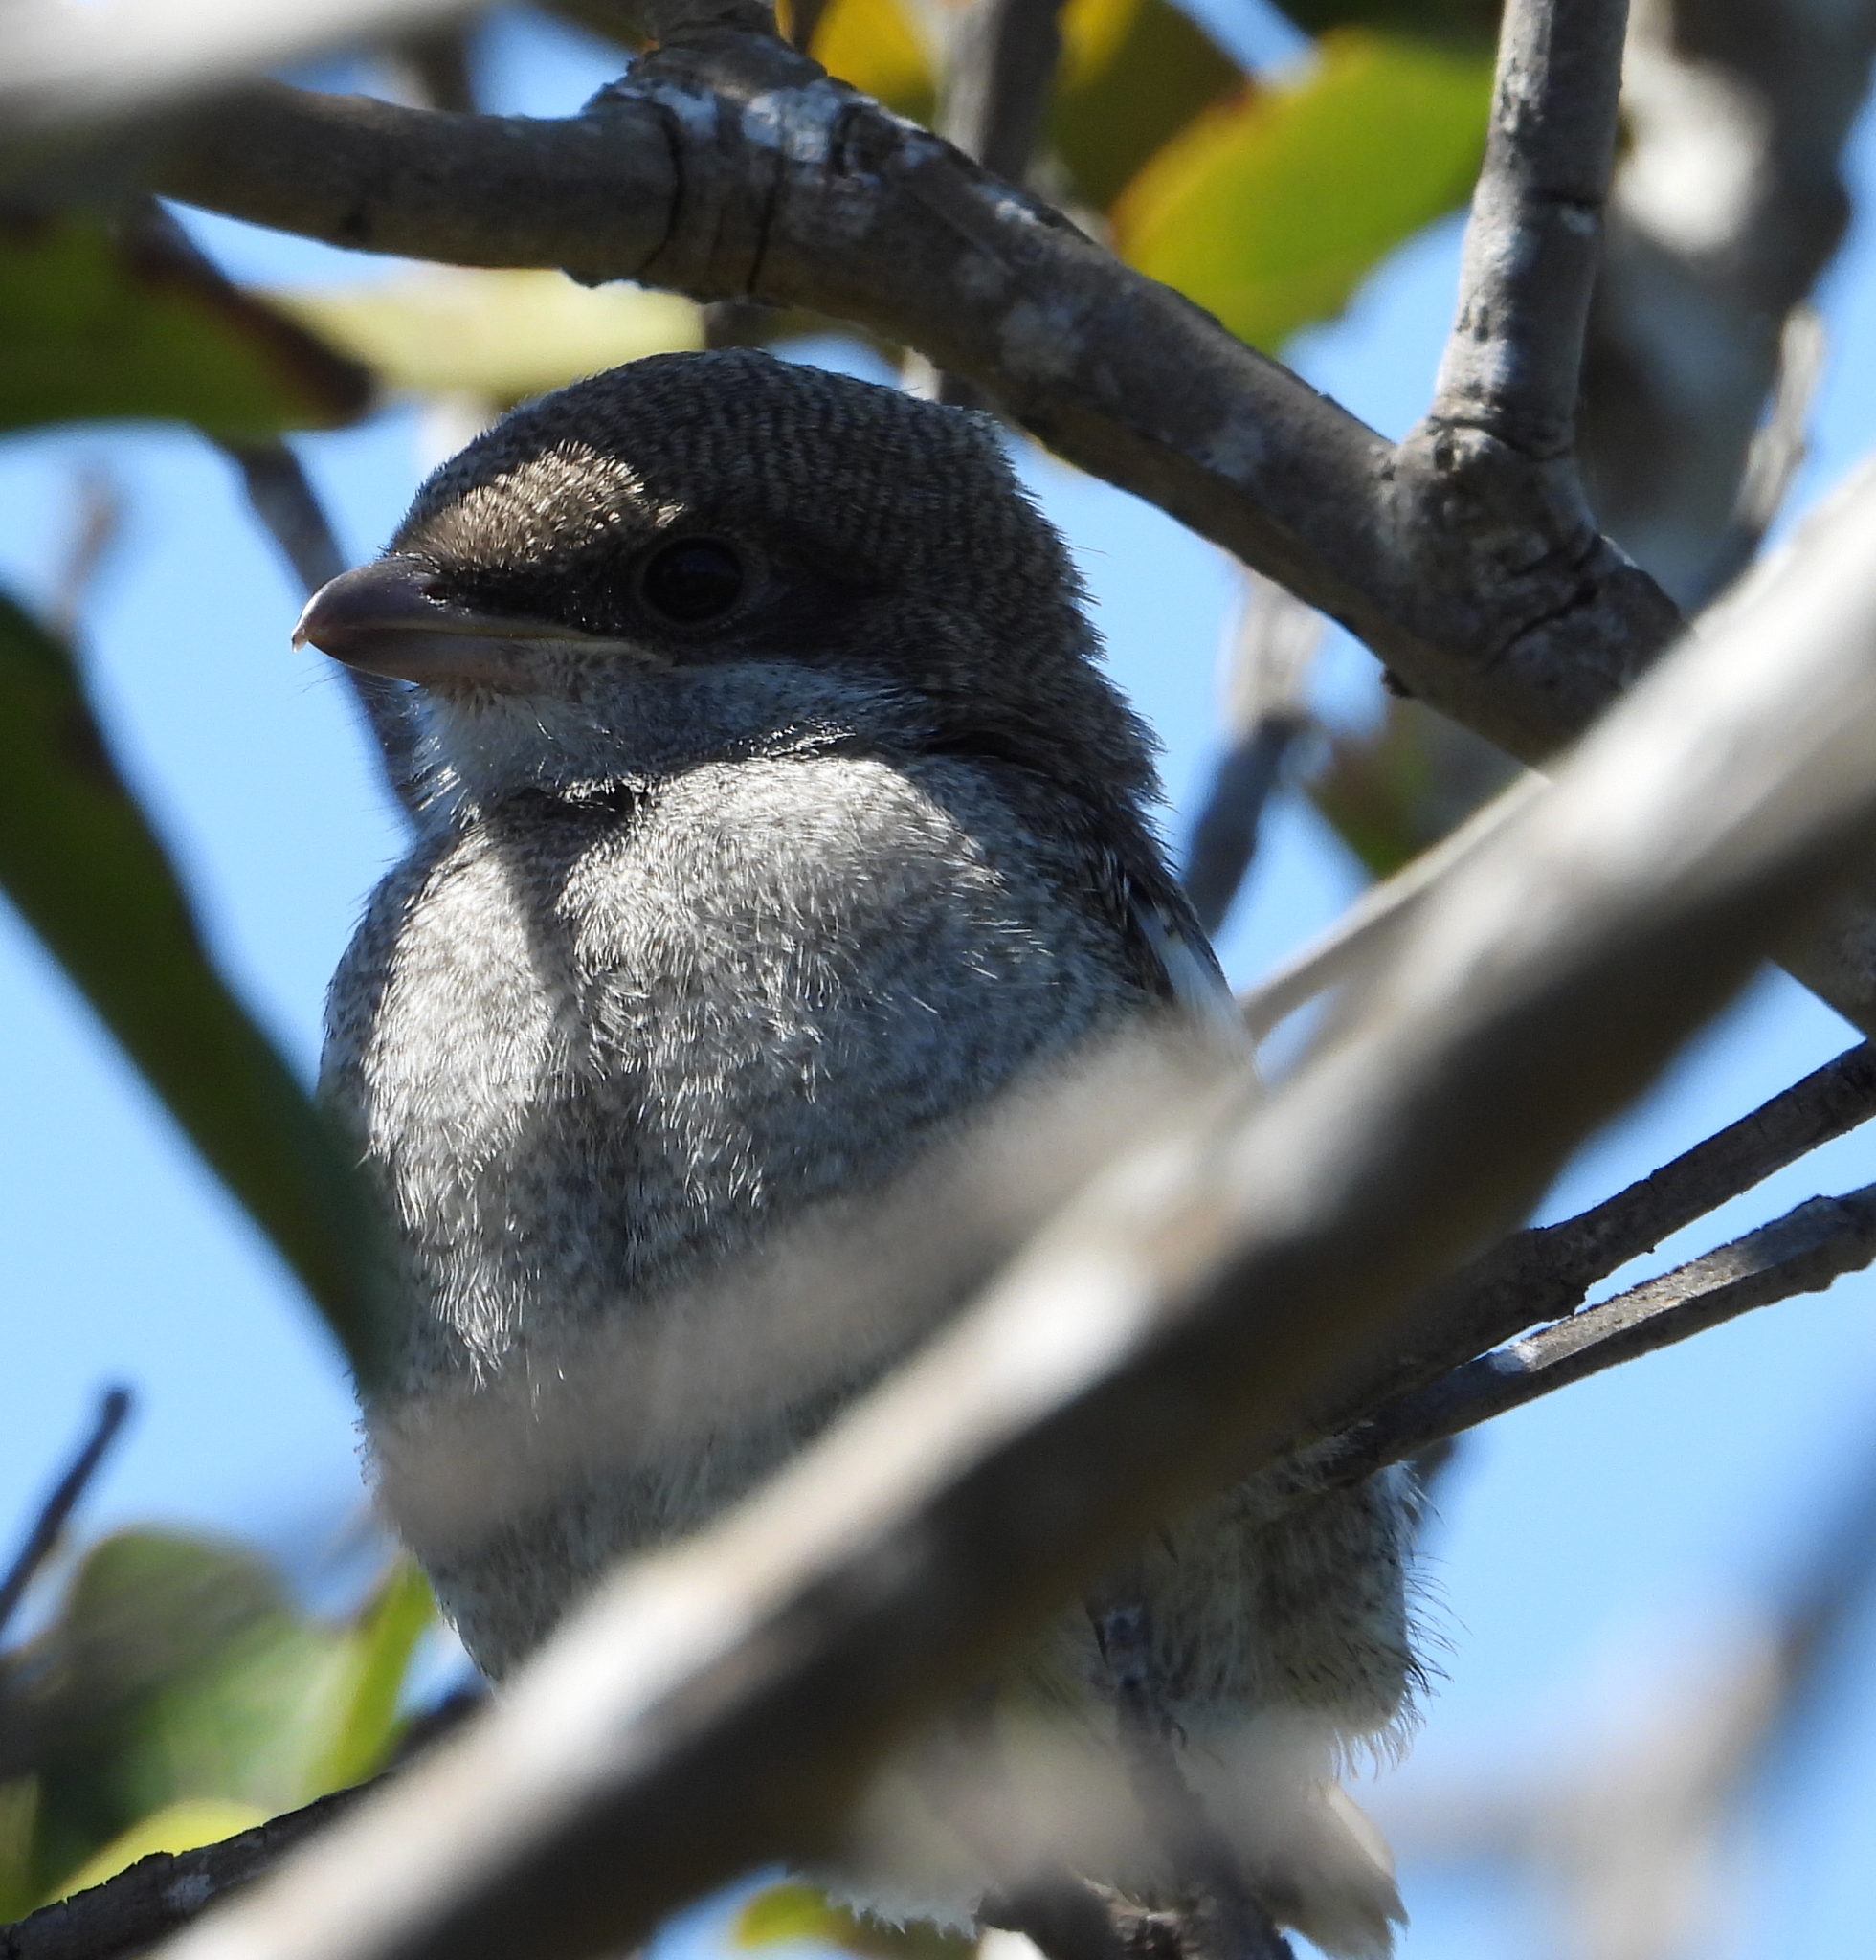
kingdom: Animalia
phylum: Chordata
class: Aves
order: Passeriformes
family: Laniidae
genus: Lanius
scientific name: Lanius collaris
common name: Southern fiscal
